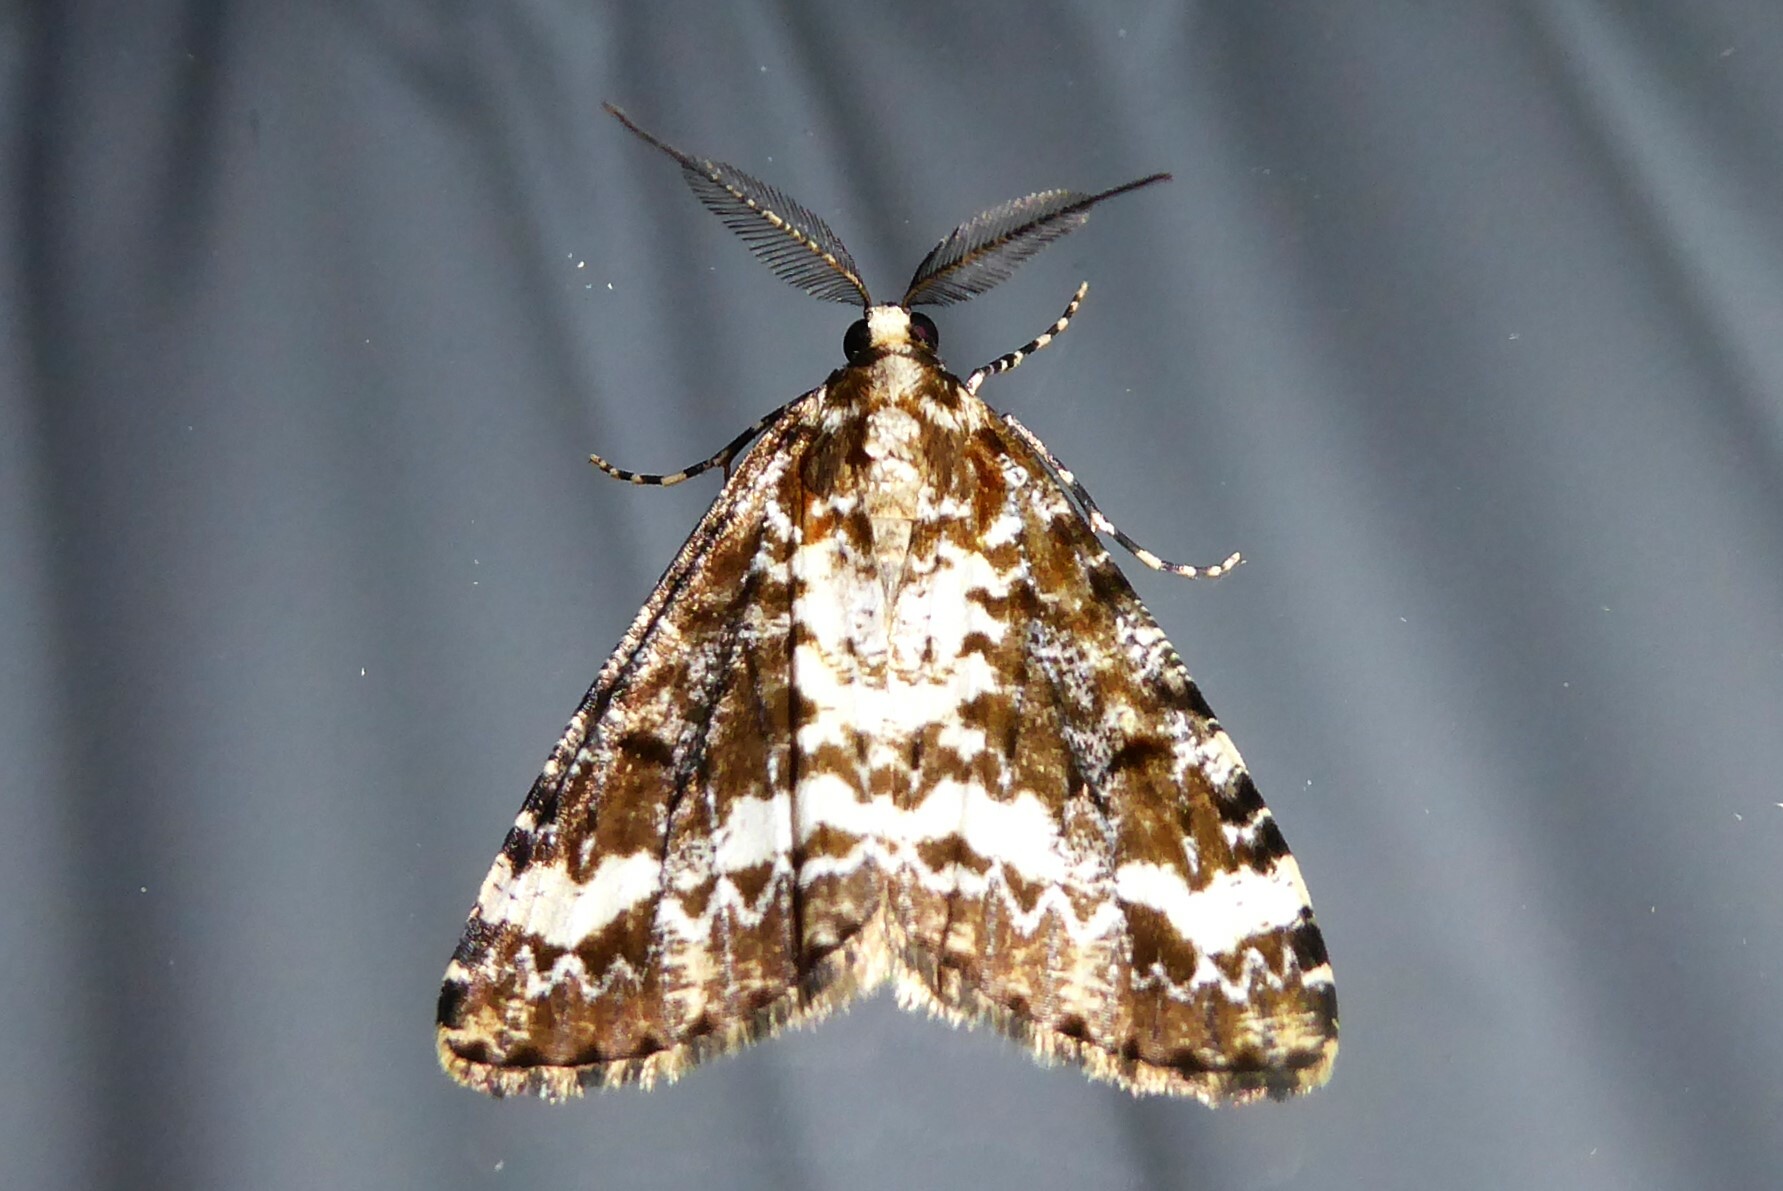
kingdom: Animalia
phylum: Arthropoda
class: Insecta
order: Lepidoptera
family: Geometridae
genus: Pseudocoremia
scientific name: Pseudocoremia leucelaea
